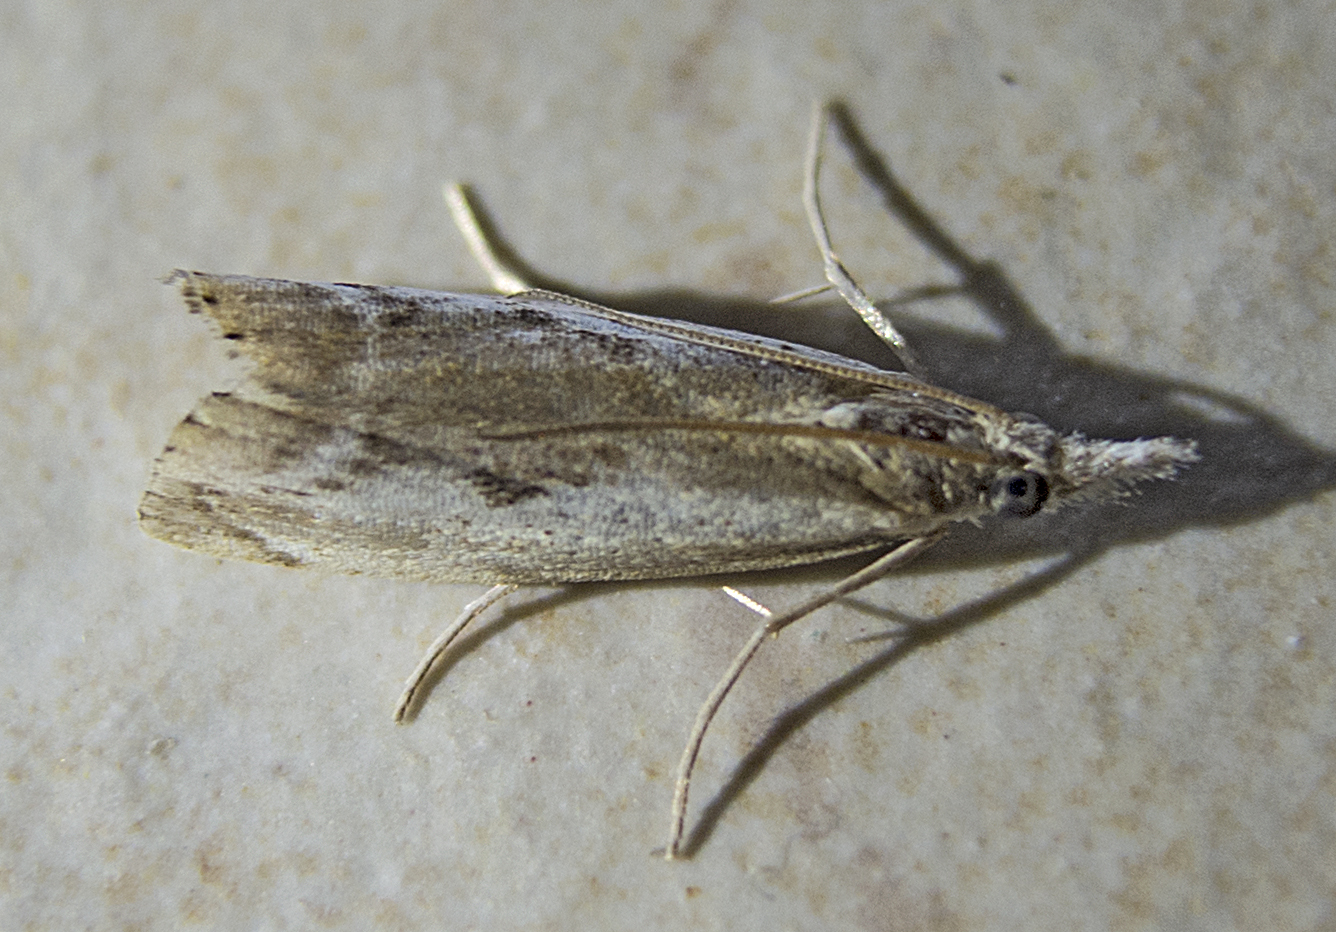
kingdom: Animalia
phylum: Arthropoda
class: Insecta
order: Lepidoptera
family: Crambidae
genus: Agriphila
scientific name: Agriphila tolli
